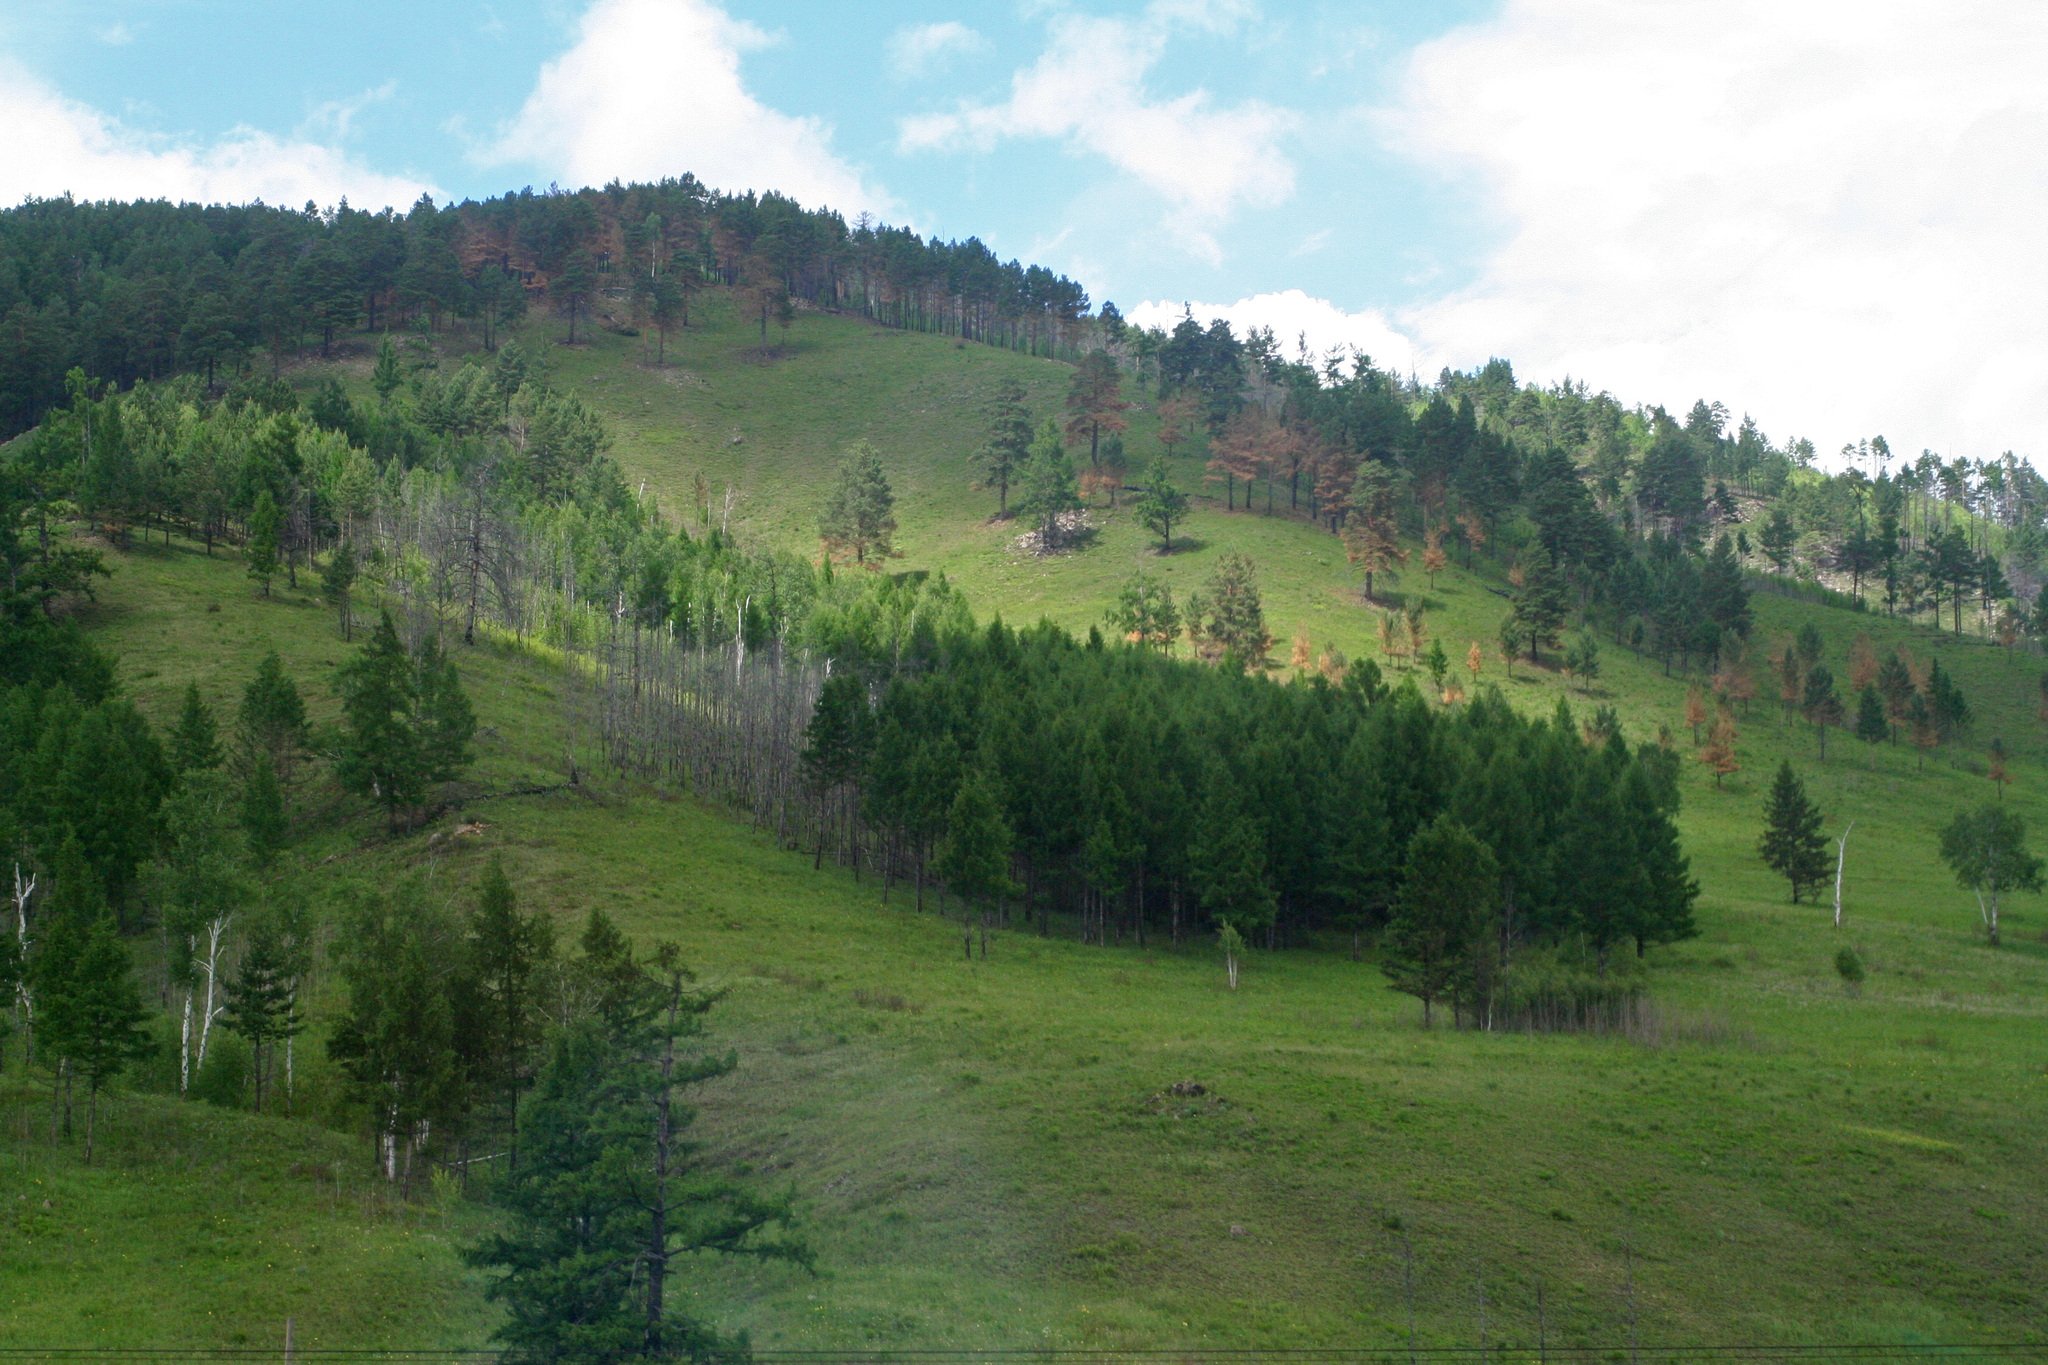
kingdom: Plantae
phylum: Tracheophyta
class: Pinopsida
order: Pinales
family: Pinaceae
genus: Pinus
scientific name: Pinus sylvestris
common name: Scots pine
